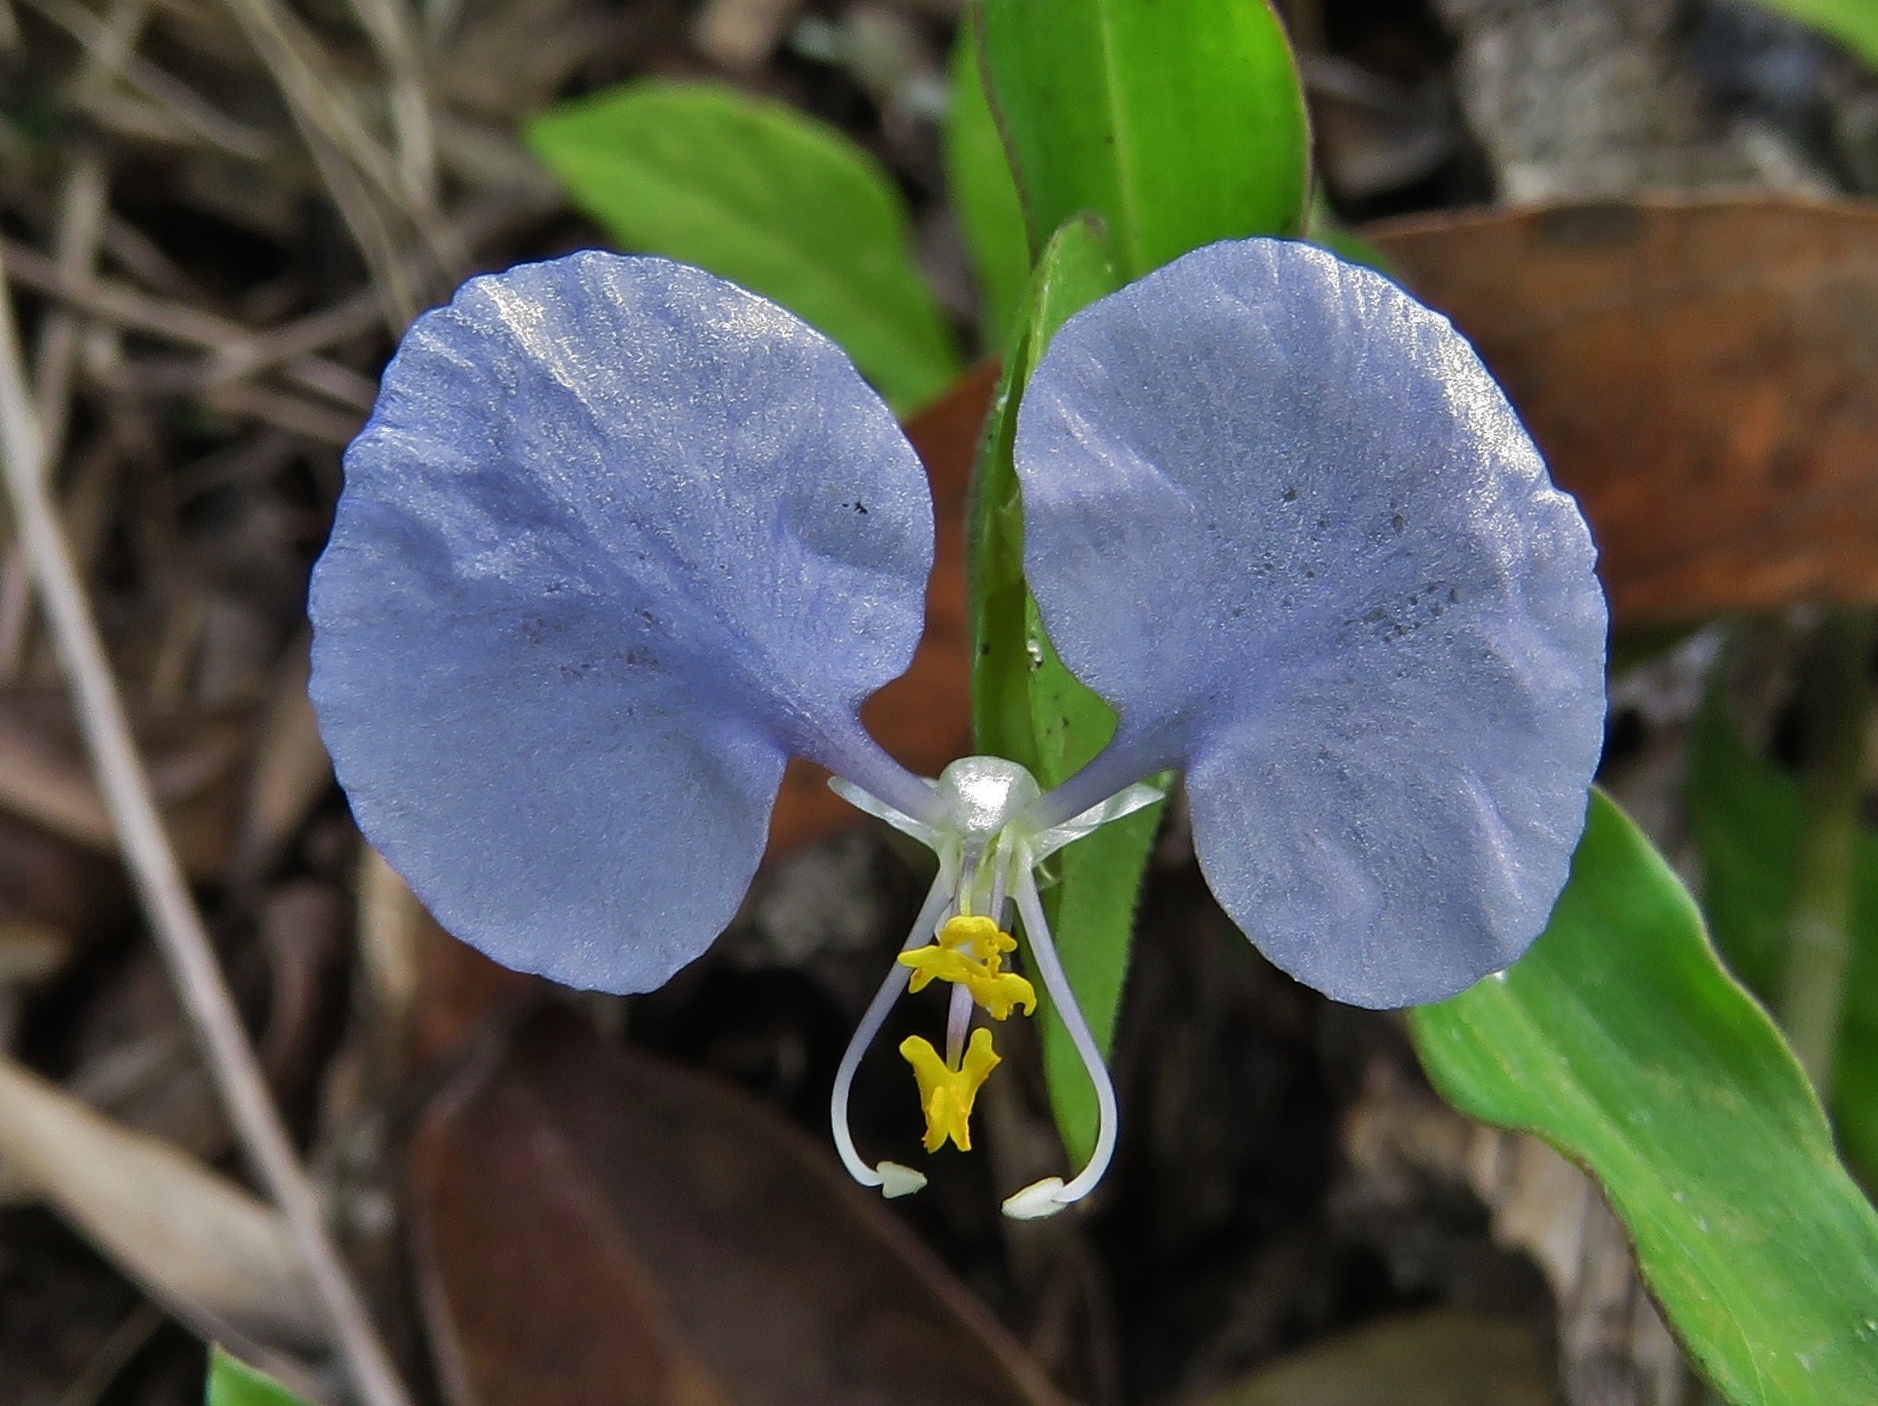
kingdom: Plantae
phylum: Tracheophyta
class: Liliopsida
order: Commelinales
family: Commelinaceae
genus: Commelina
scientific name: Commelina erecta
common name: Blousel blommetjie
